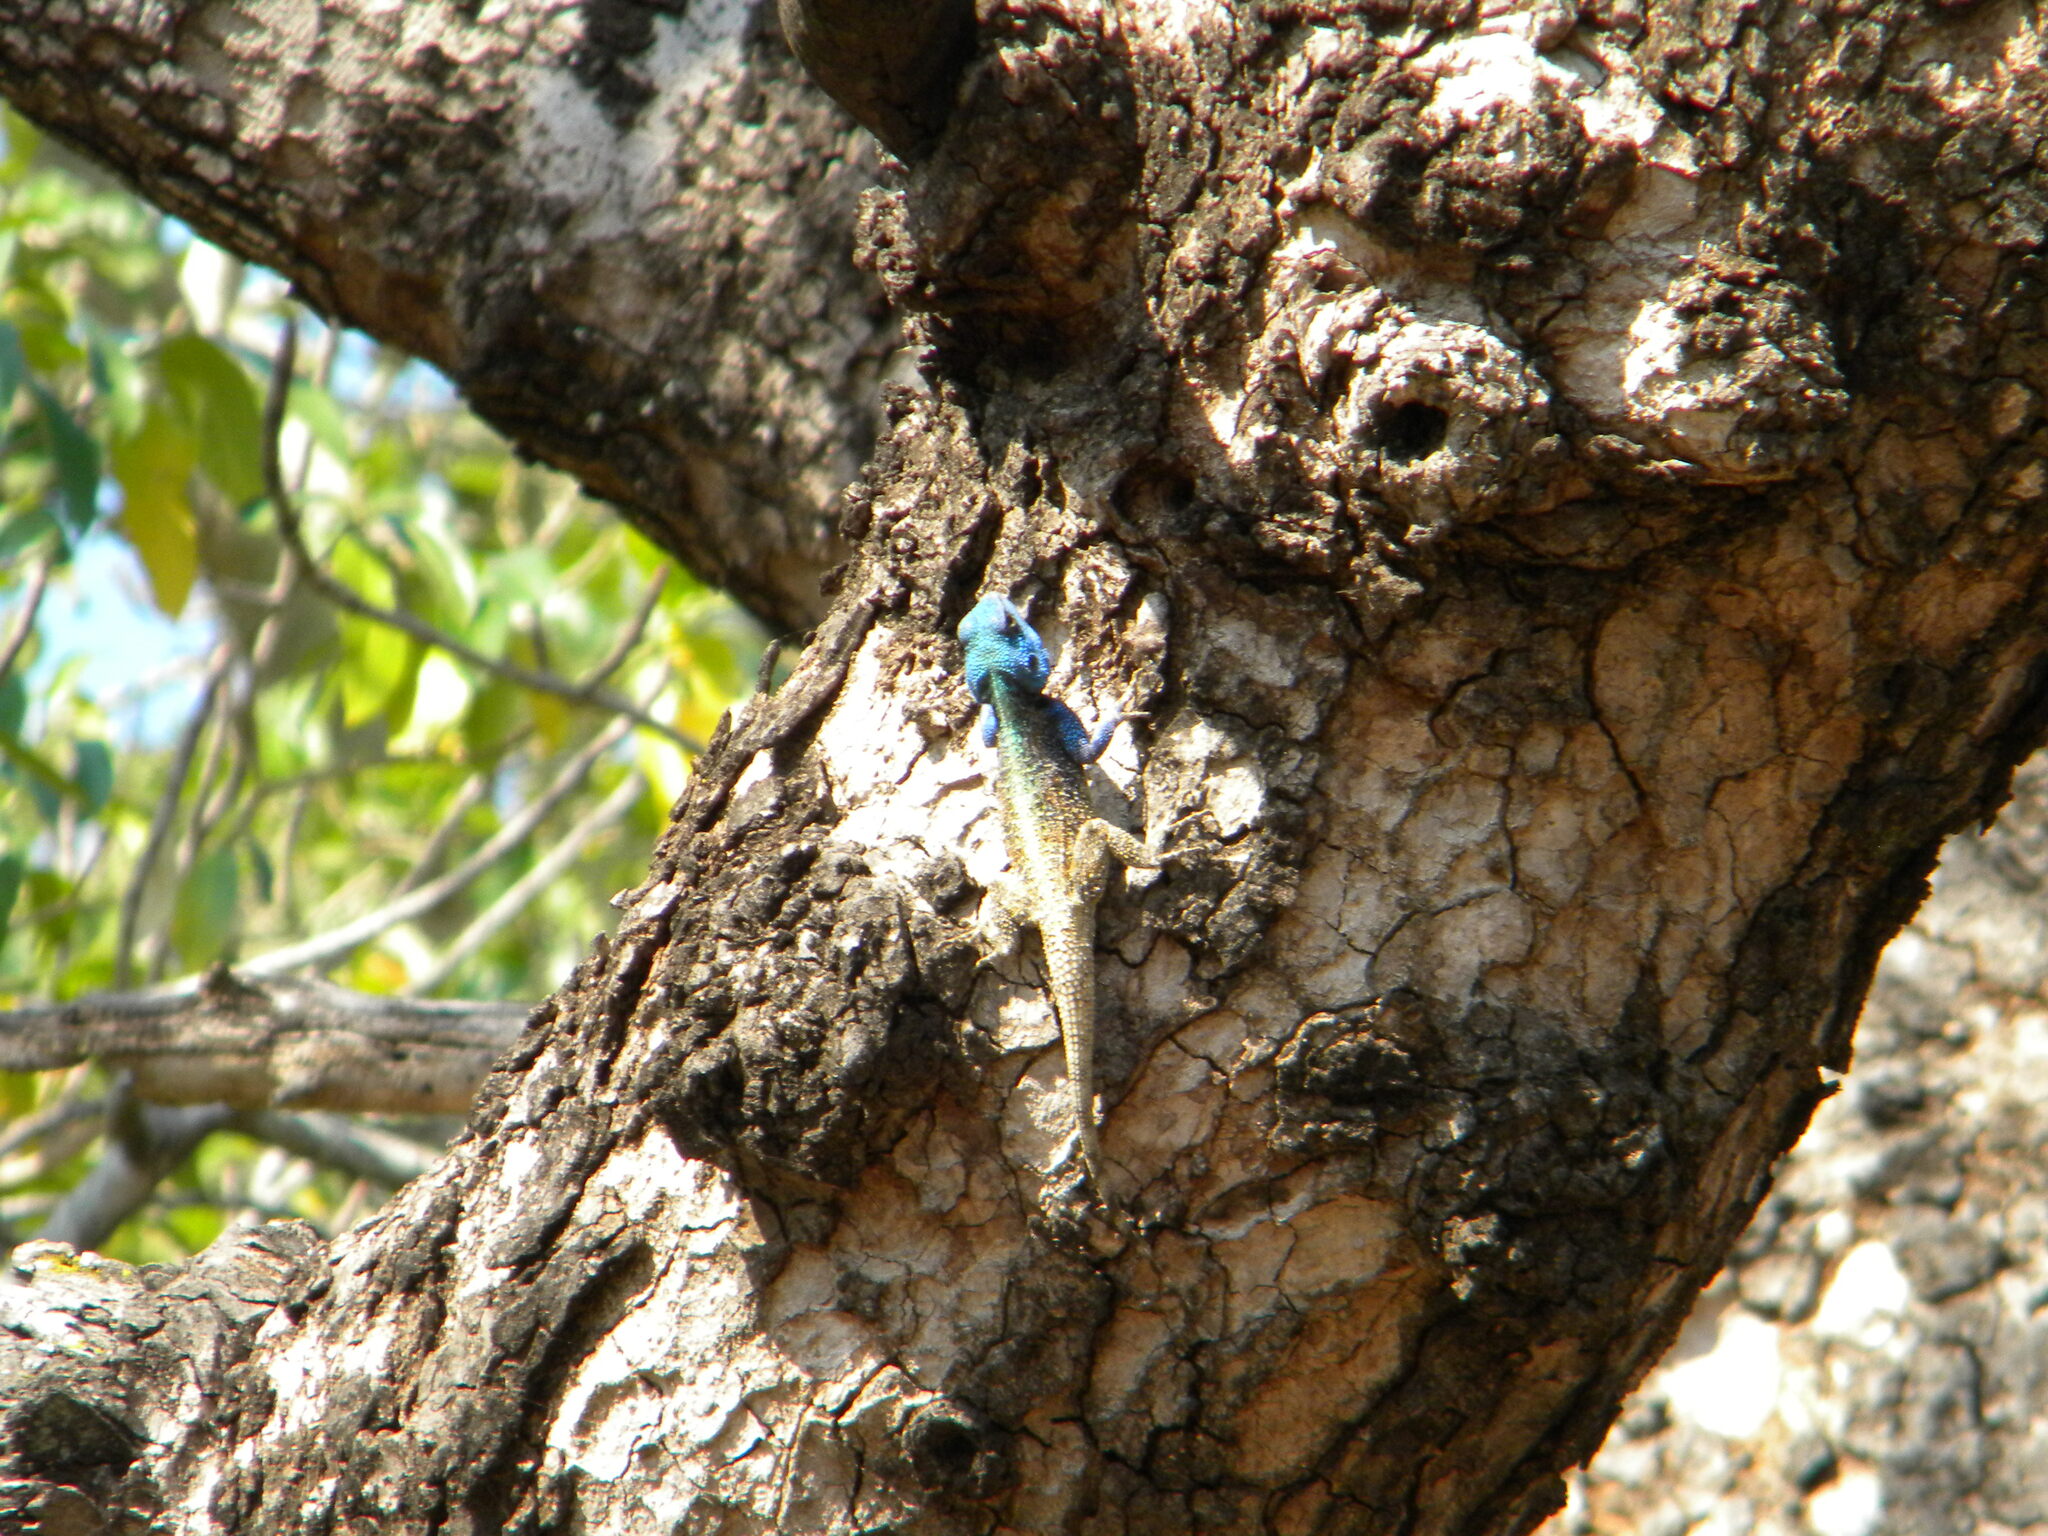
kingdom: Animalia
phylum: Chordata
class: Squamata
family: Agamidae
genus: Acanthocercus
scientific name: Acanthocercus atricollis
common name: Southern tree agama
